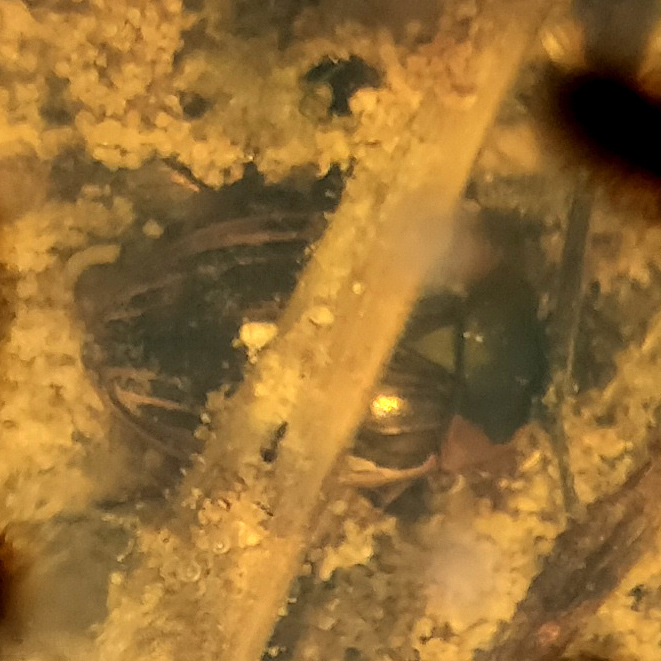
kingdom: Animalia
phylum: Arthropoda
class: Insecta
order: Coleoptera
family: Hydrophilidae
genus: Tropisternus
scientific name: Tropisternus collaris
